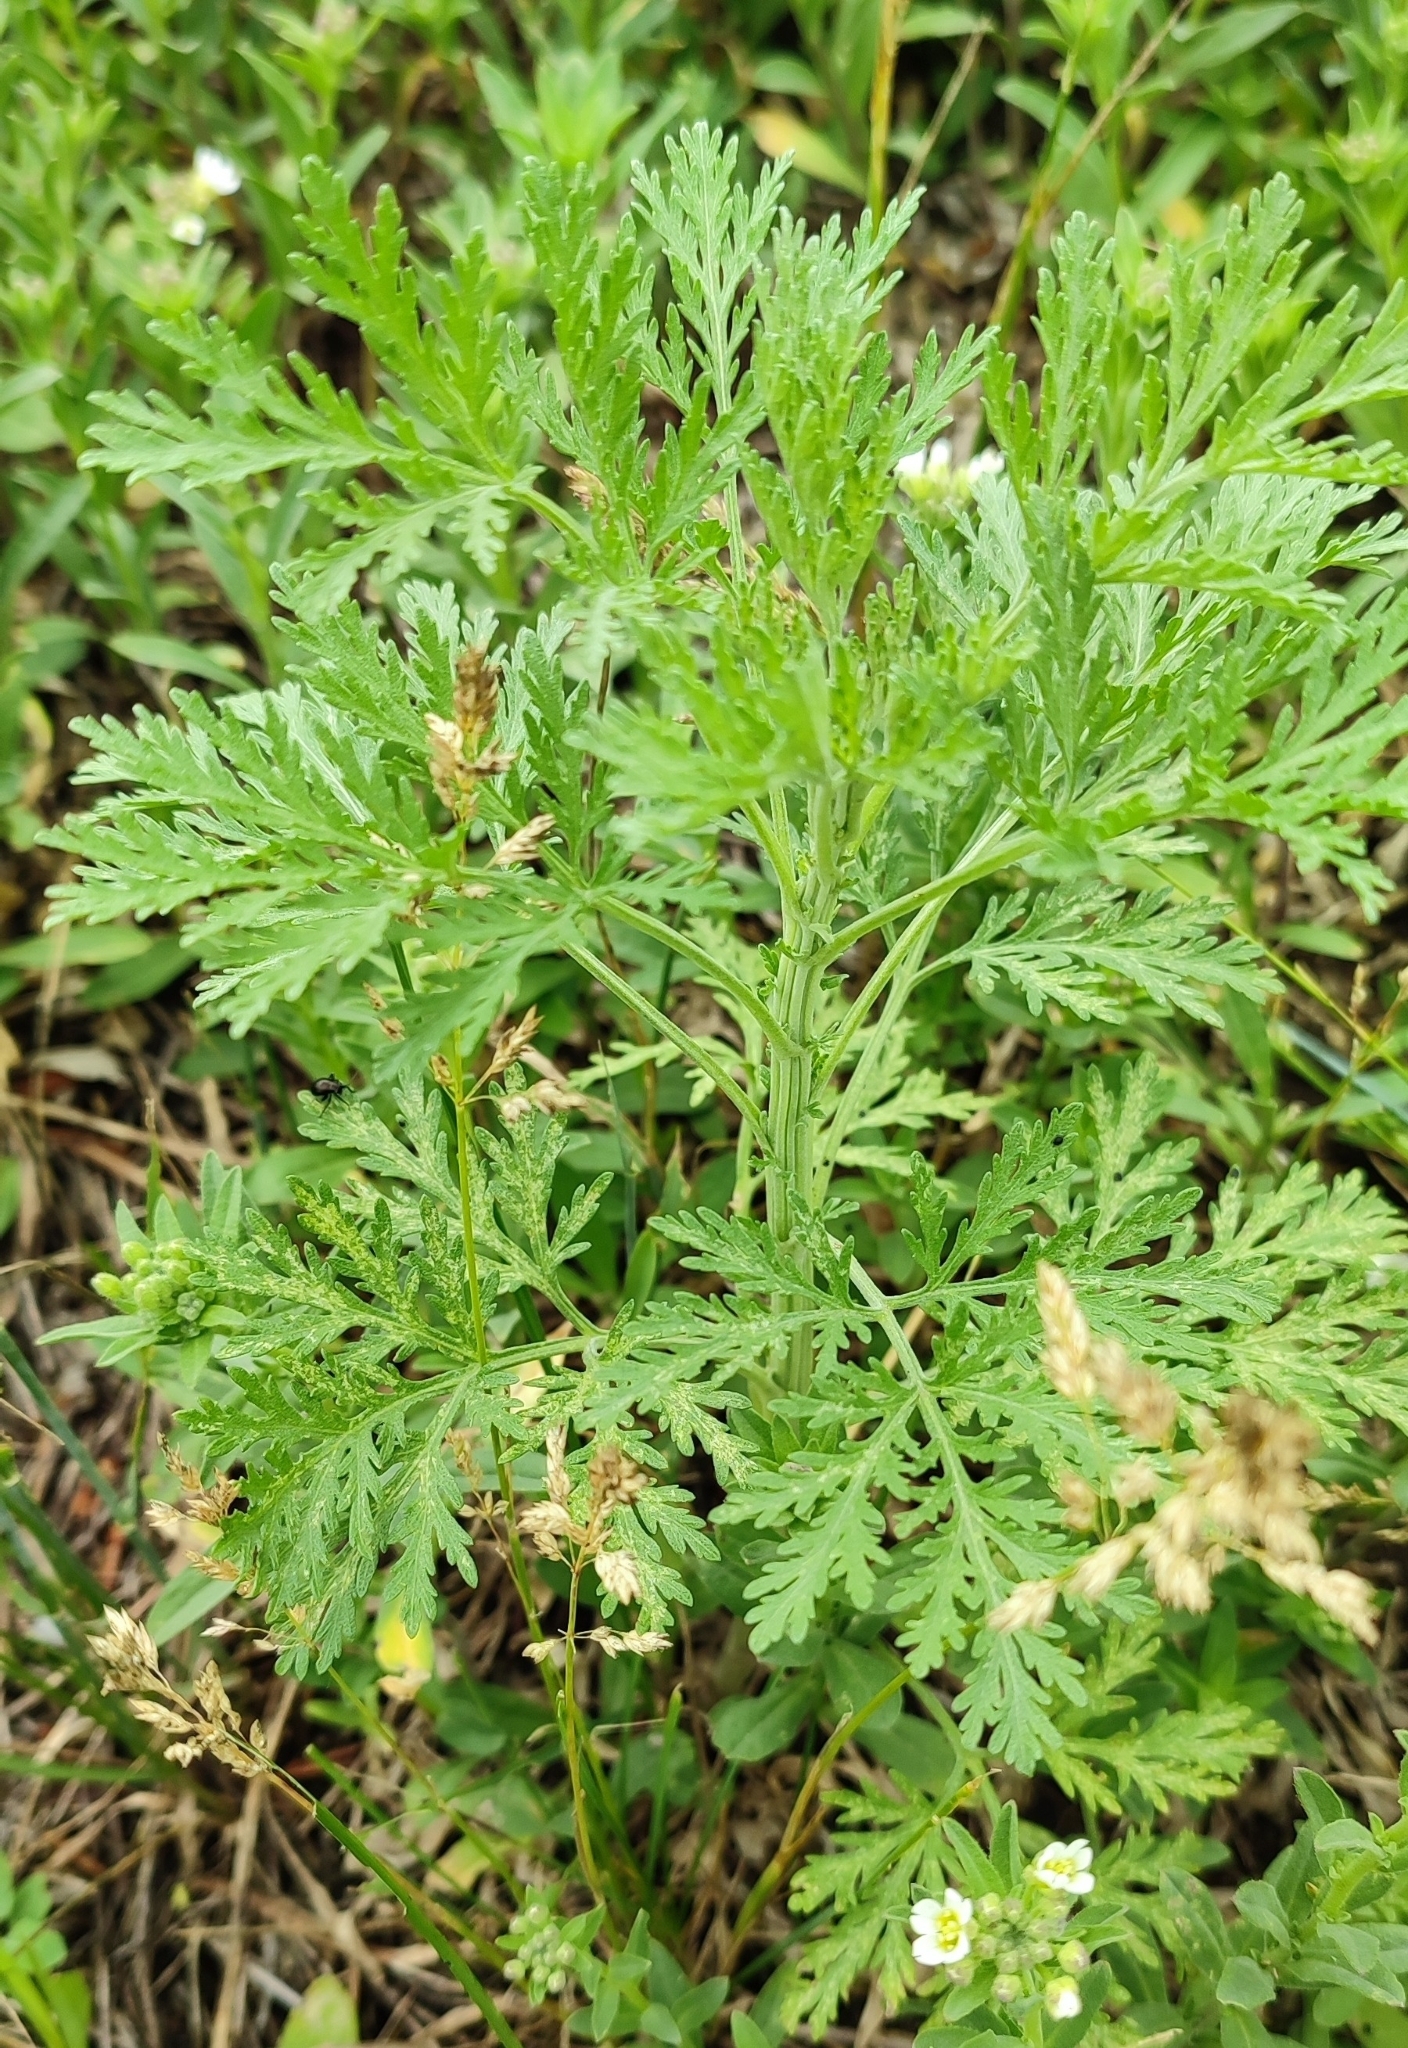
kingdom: Plantae
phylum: Tracheophyta
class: Magnoliopsida
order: Asterales
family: Asteraceae
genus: Artemisia
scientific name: Artemisia sieversiana
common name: Sieversian wormwood
